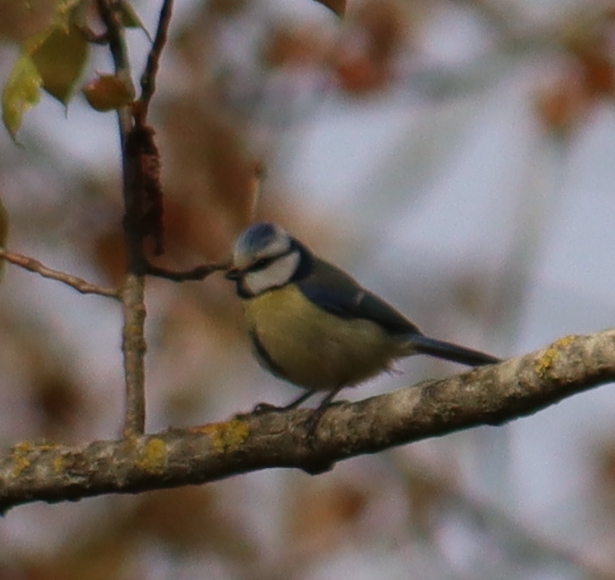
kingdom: Animalia
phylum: Chordata
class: Aves
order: Passeriformes
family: Paridae
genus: Cyanistes
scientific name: Cyanistes caeruleus
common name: Eurasian blue tit
